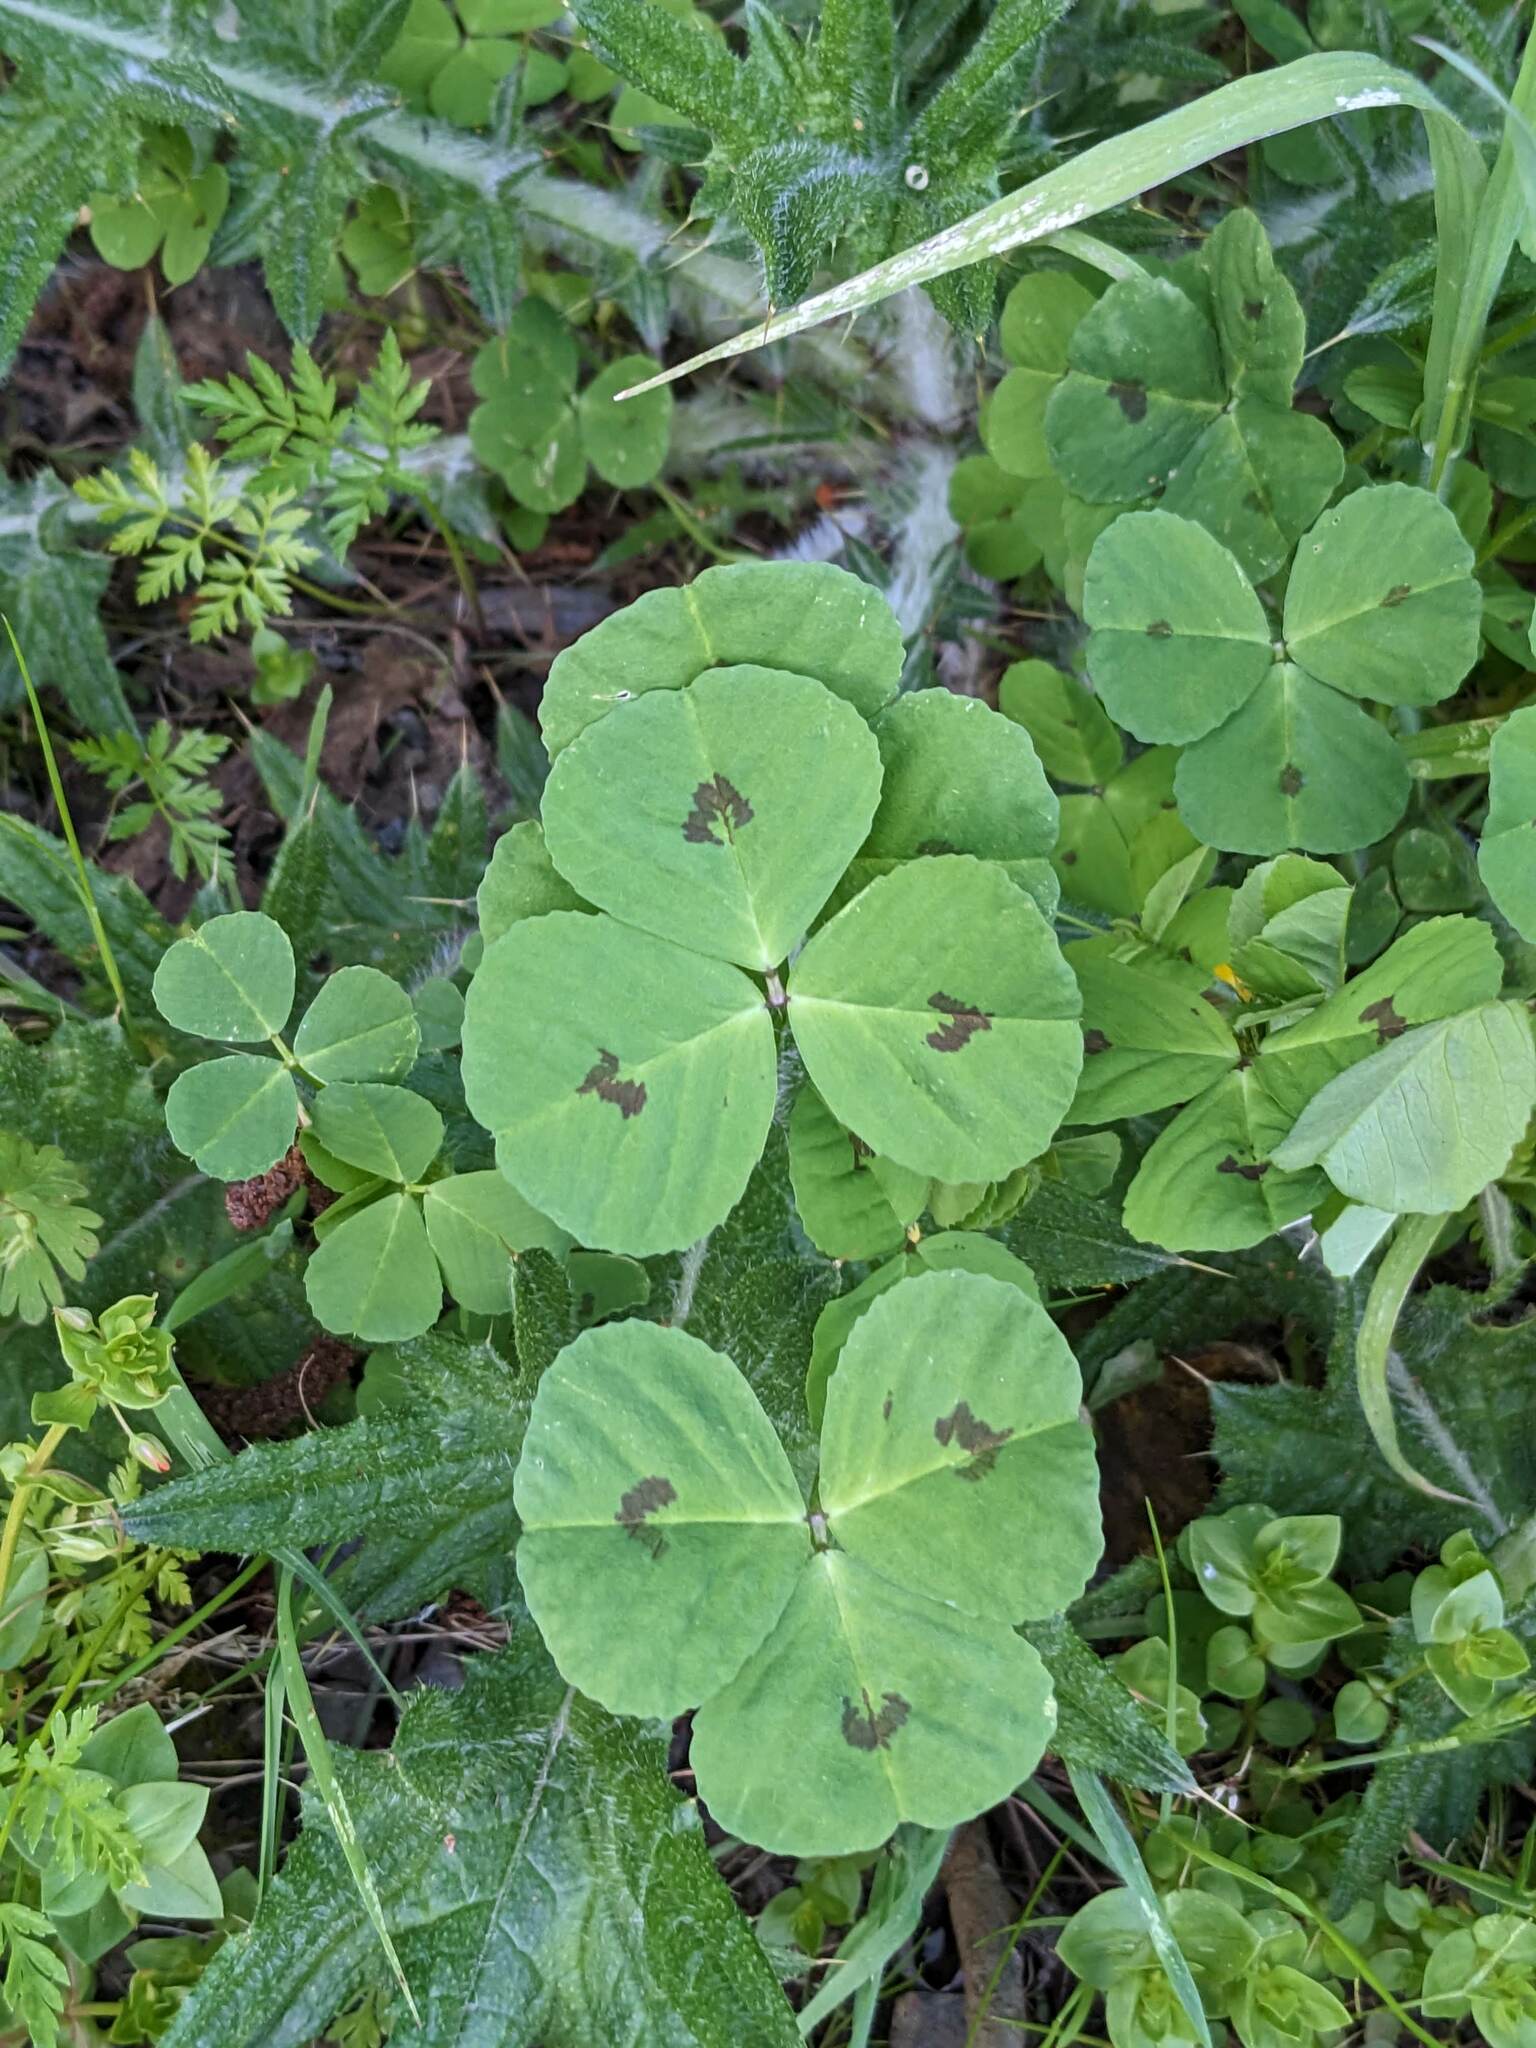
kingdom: Plantae
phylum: Tracheophyta
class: Magnoliopsida
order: Fabales
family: Fabaceae
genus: Medicago
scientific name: Medicago arabica
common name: Spotted medick
